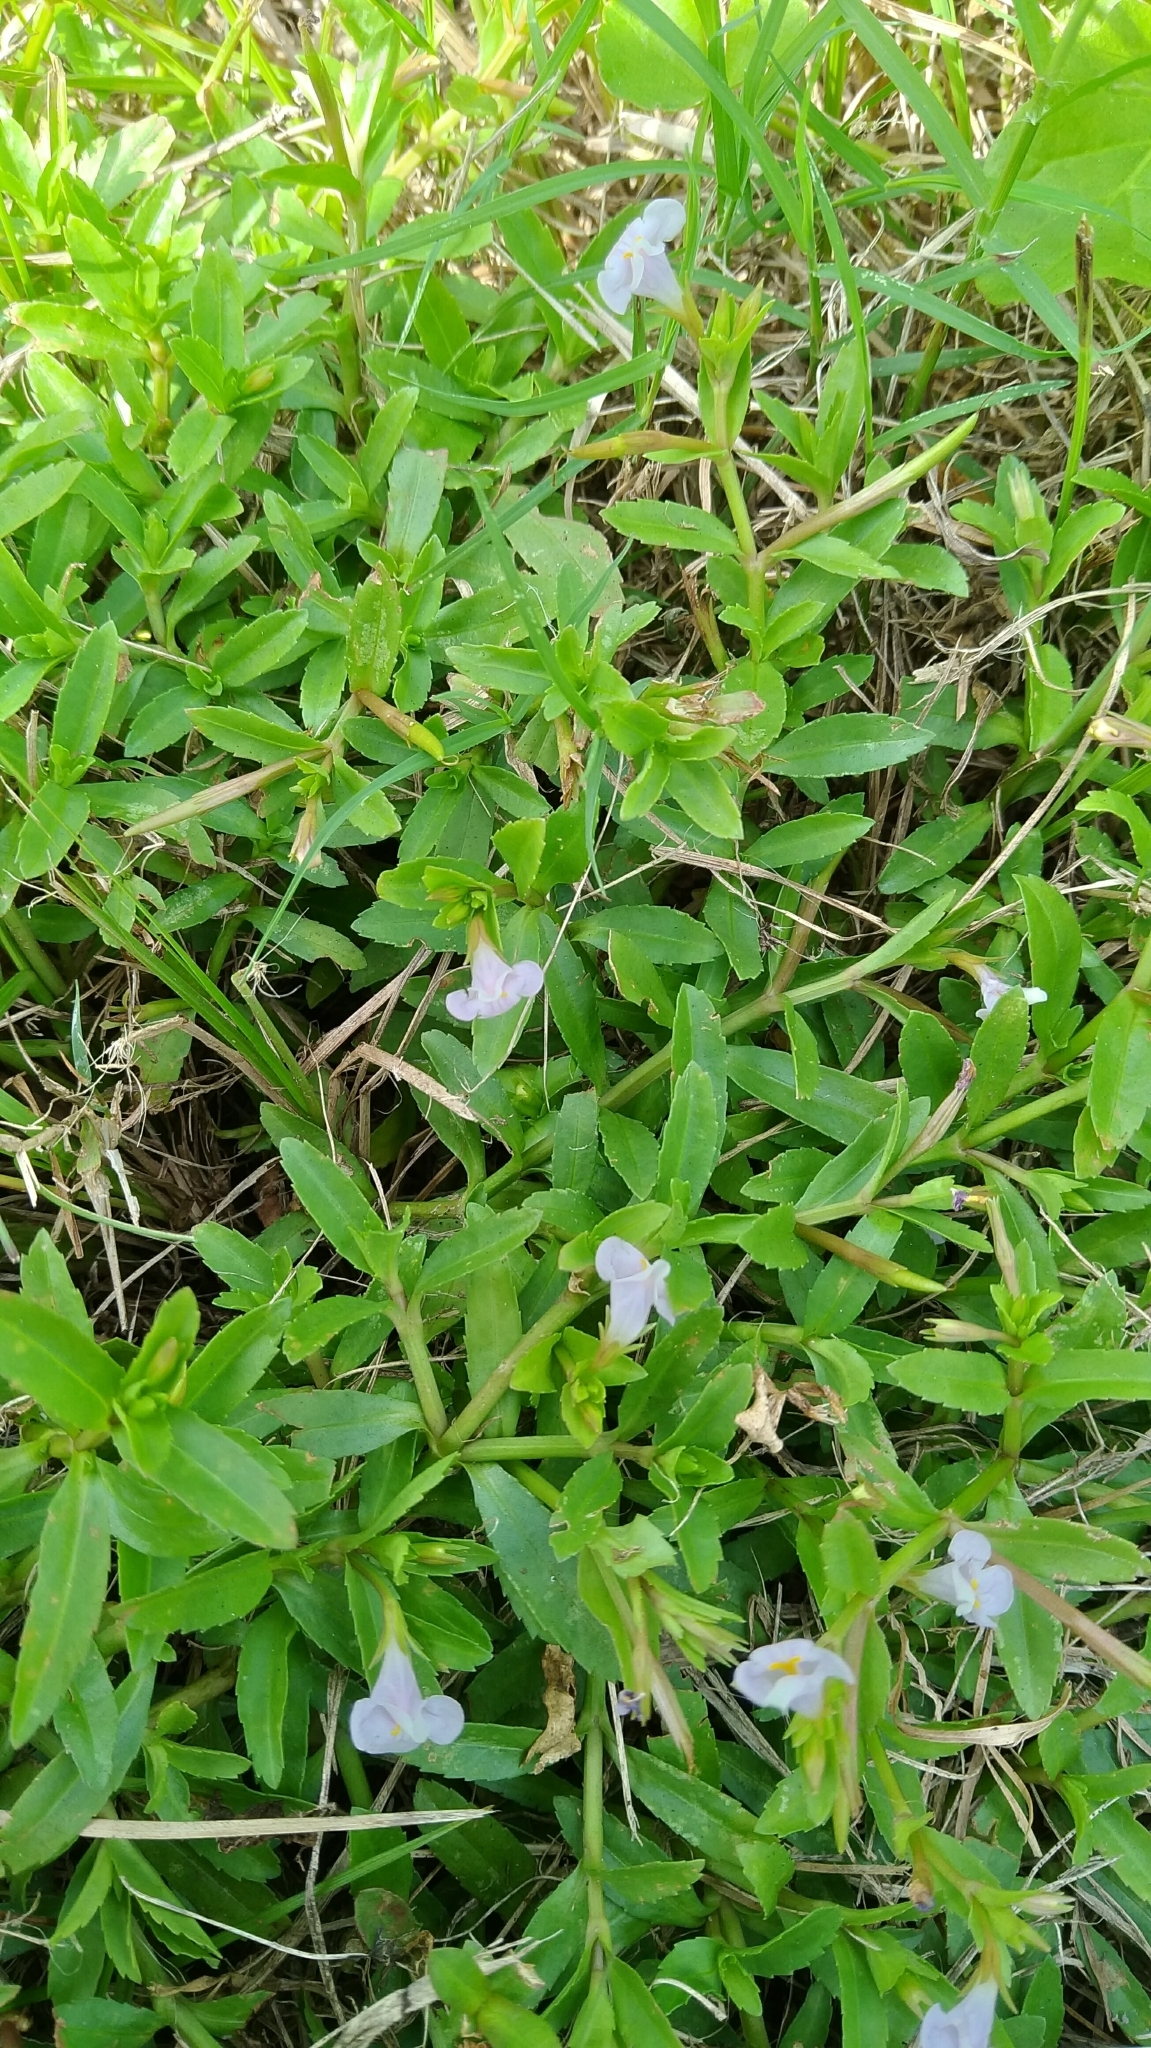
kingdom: Plantae
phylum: Tracheophyta
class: Magnoliopsida
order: Lamiales
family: Linderniaceae
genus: Bonnaya
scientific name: Bonnaya antipoda
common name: Sparrow false pimpernel
